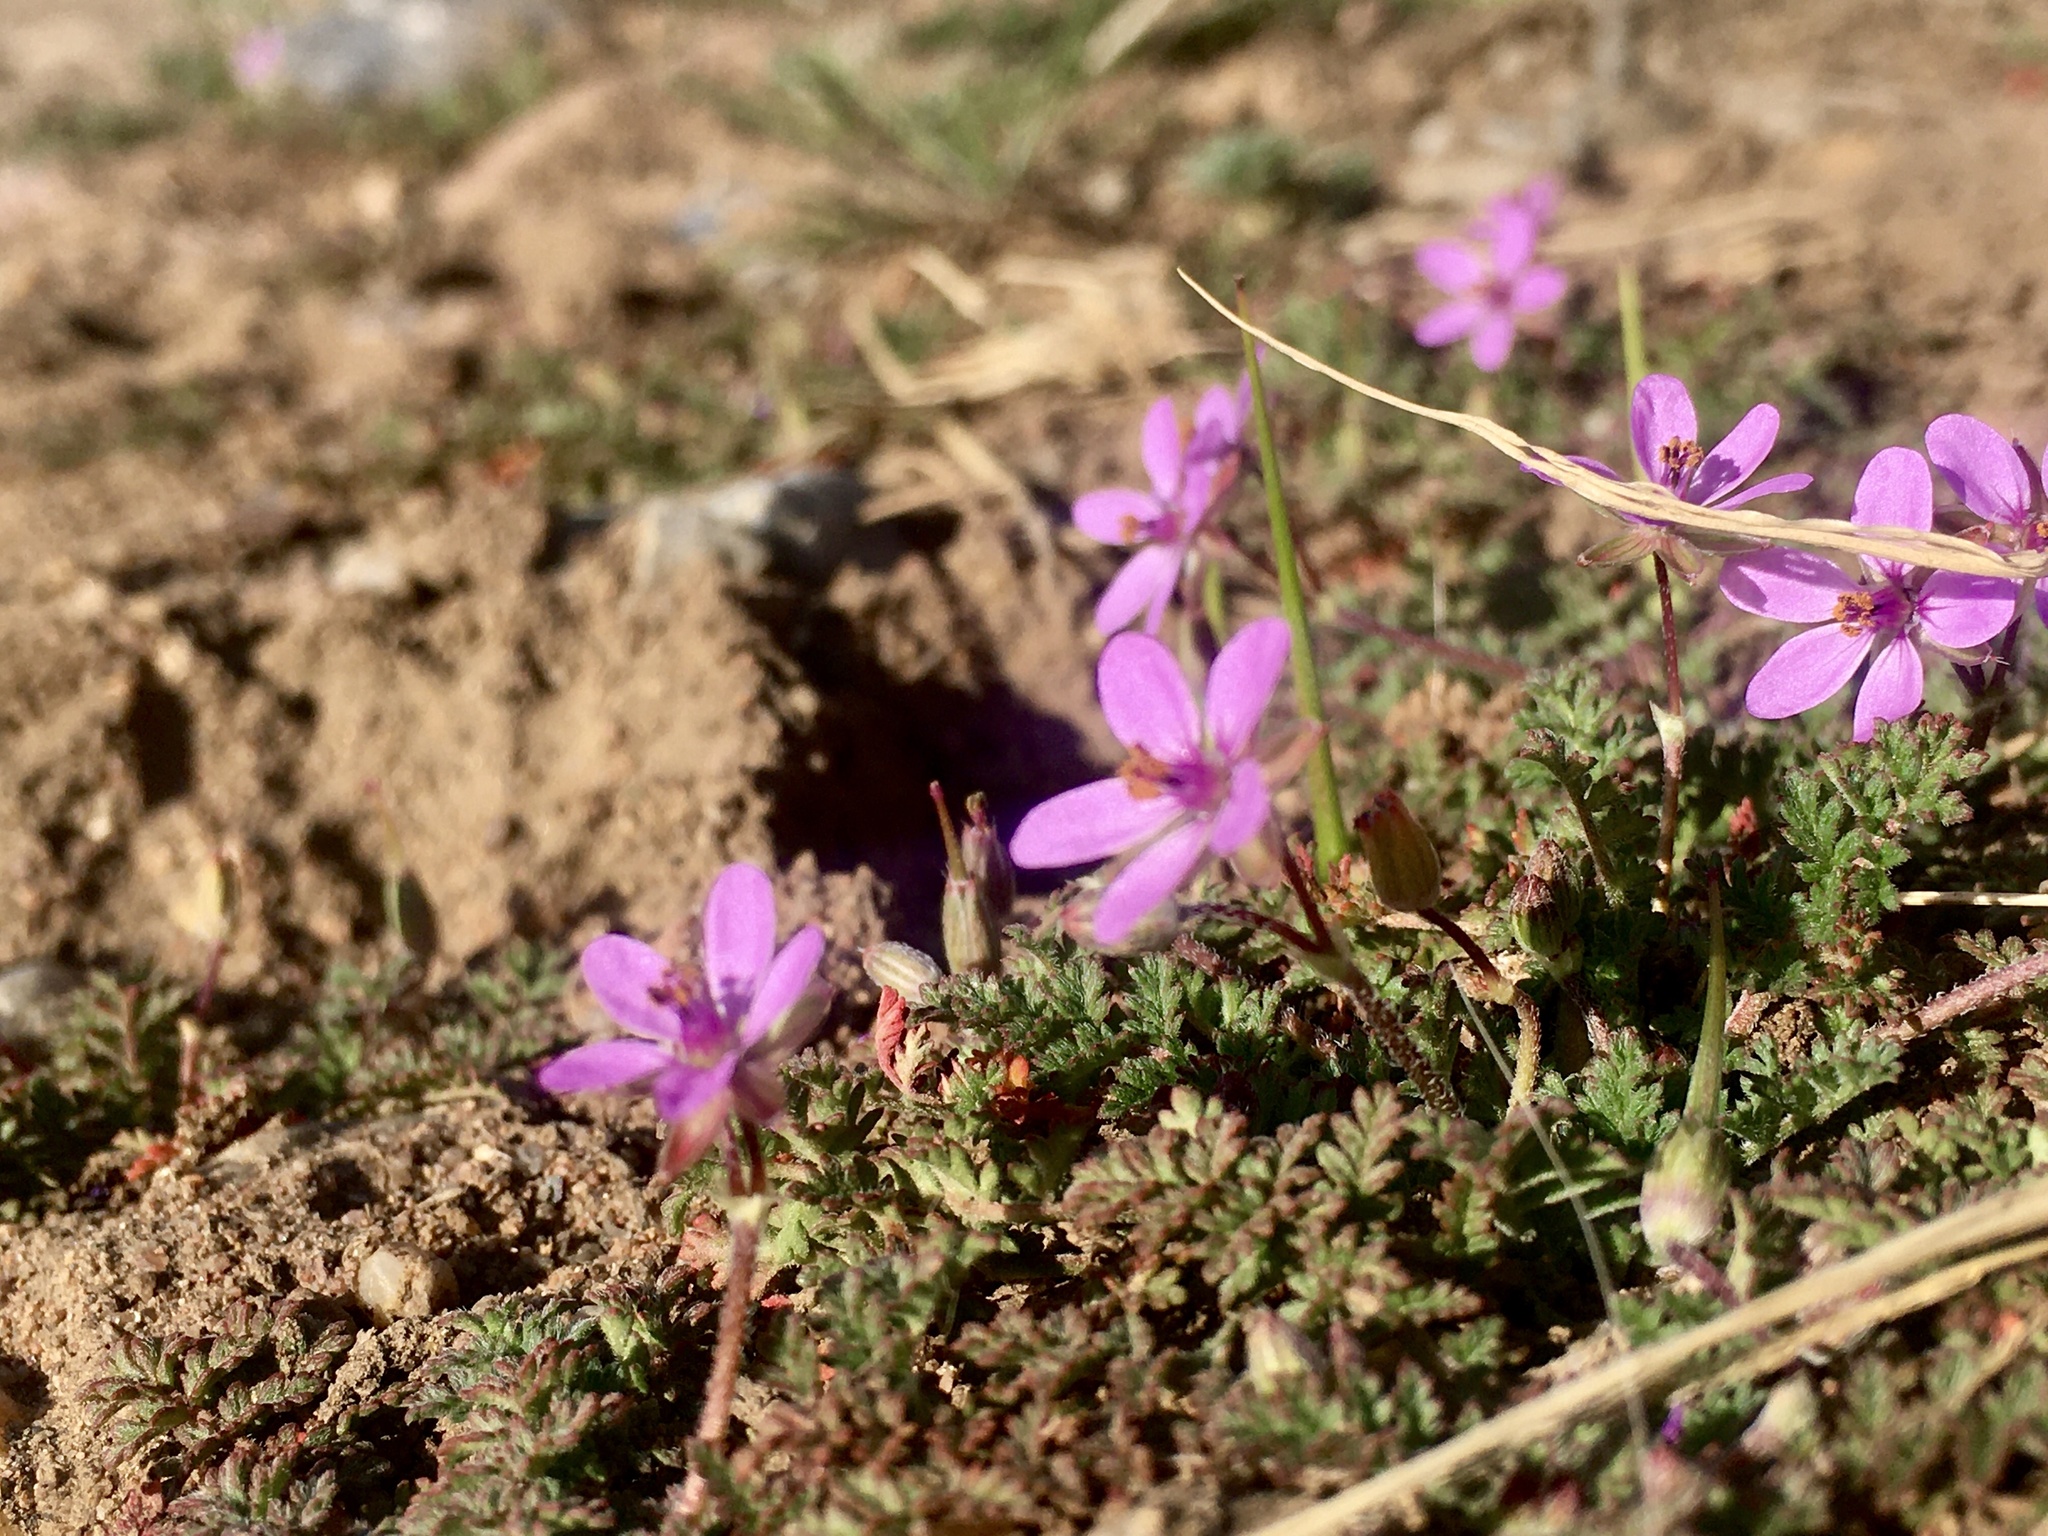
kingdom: Plantae
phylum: Tracheophyta
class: Magnoliopsida
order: Geraniales
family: Geraniaceae
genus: Erodium
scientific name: Erodium cicutarium
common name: Common stork's-bill
